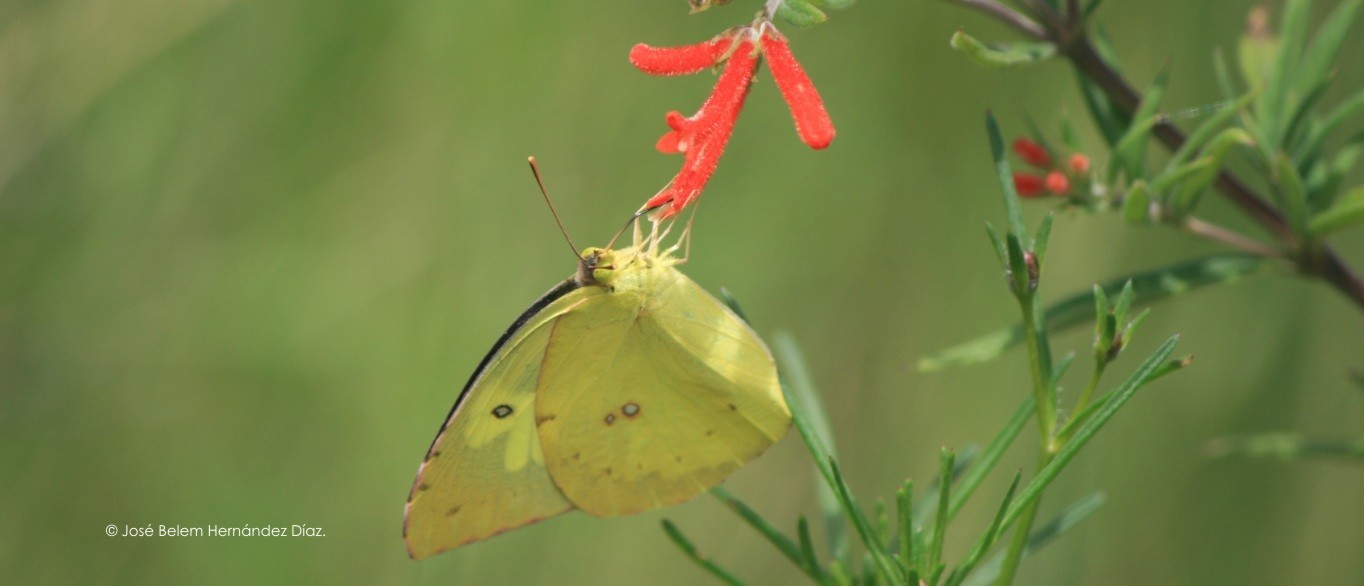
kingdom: Animalia
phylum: Arthropoda
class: Insecta
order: Lepidoptera
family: Pieridae
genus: Zerene
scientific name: Zerene cesonia
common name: Southern dogface
